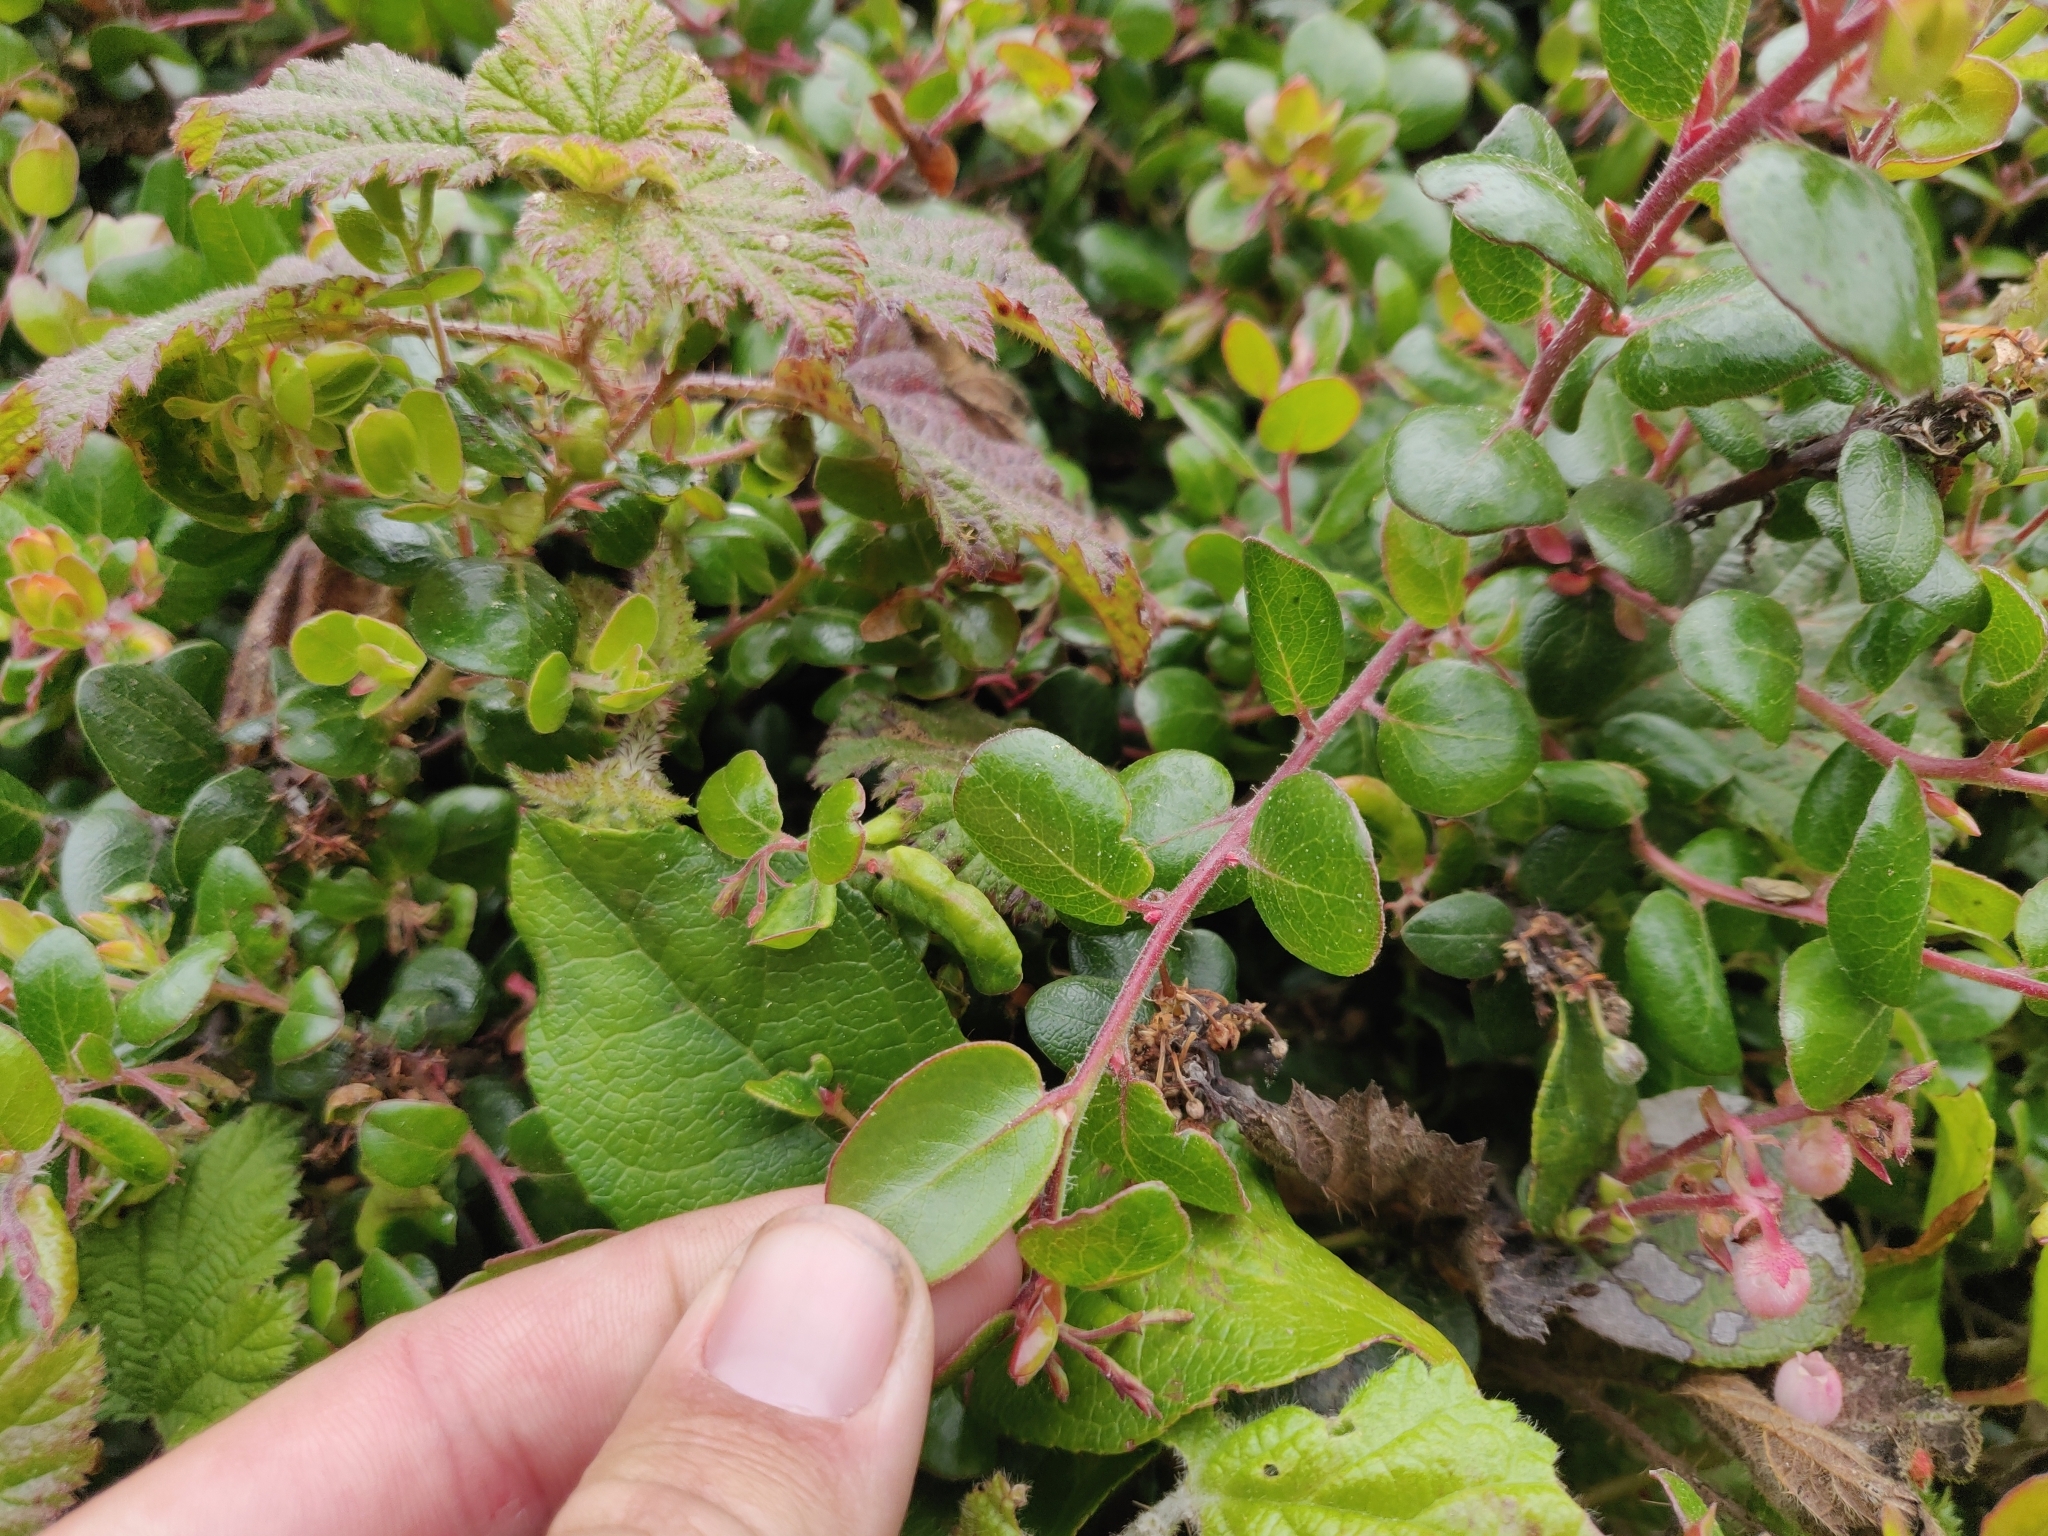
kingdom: Plantae
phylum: Tracheophyta
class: Magnoliopsida
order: Ericales
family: Ericaceae
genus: Arctostaphylos
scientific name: Arctostaphylos nummularia
